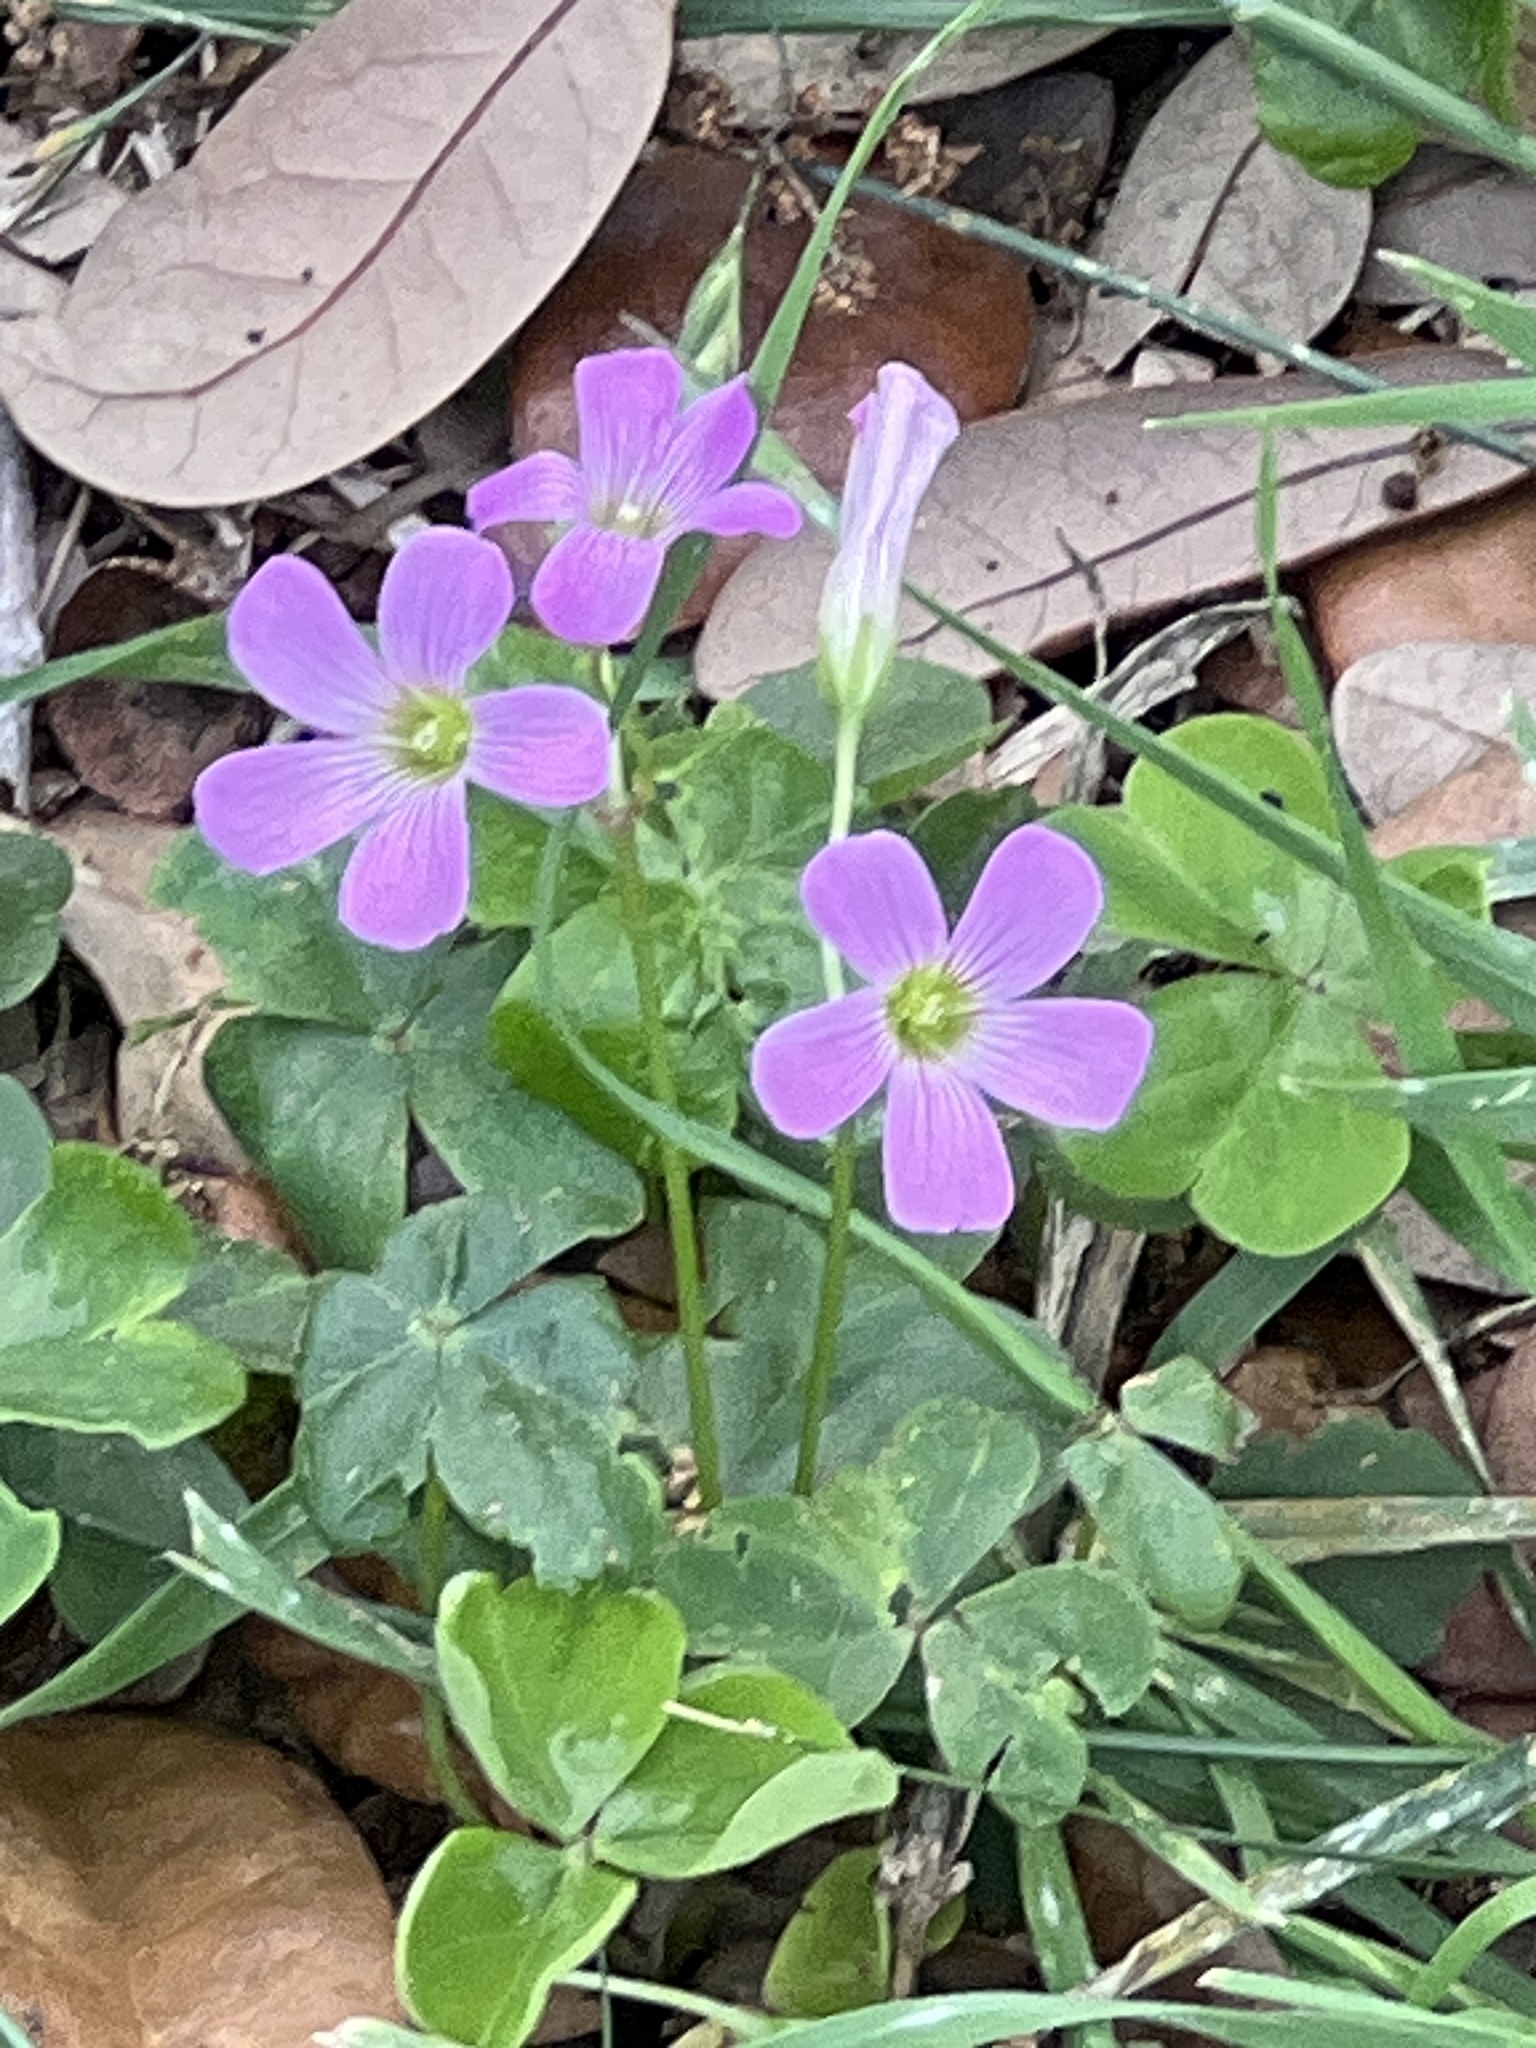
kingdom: Plantae
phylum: Tracheophyta
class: Magnoliopsida
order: Oxalidales
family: Oxalidaceae
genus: Oxalis
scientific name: Oxalis drummondii
